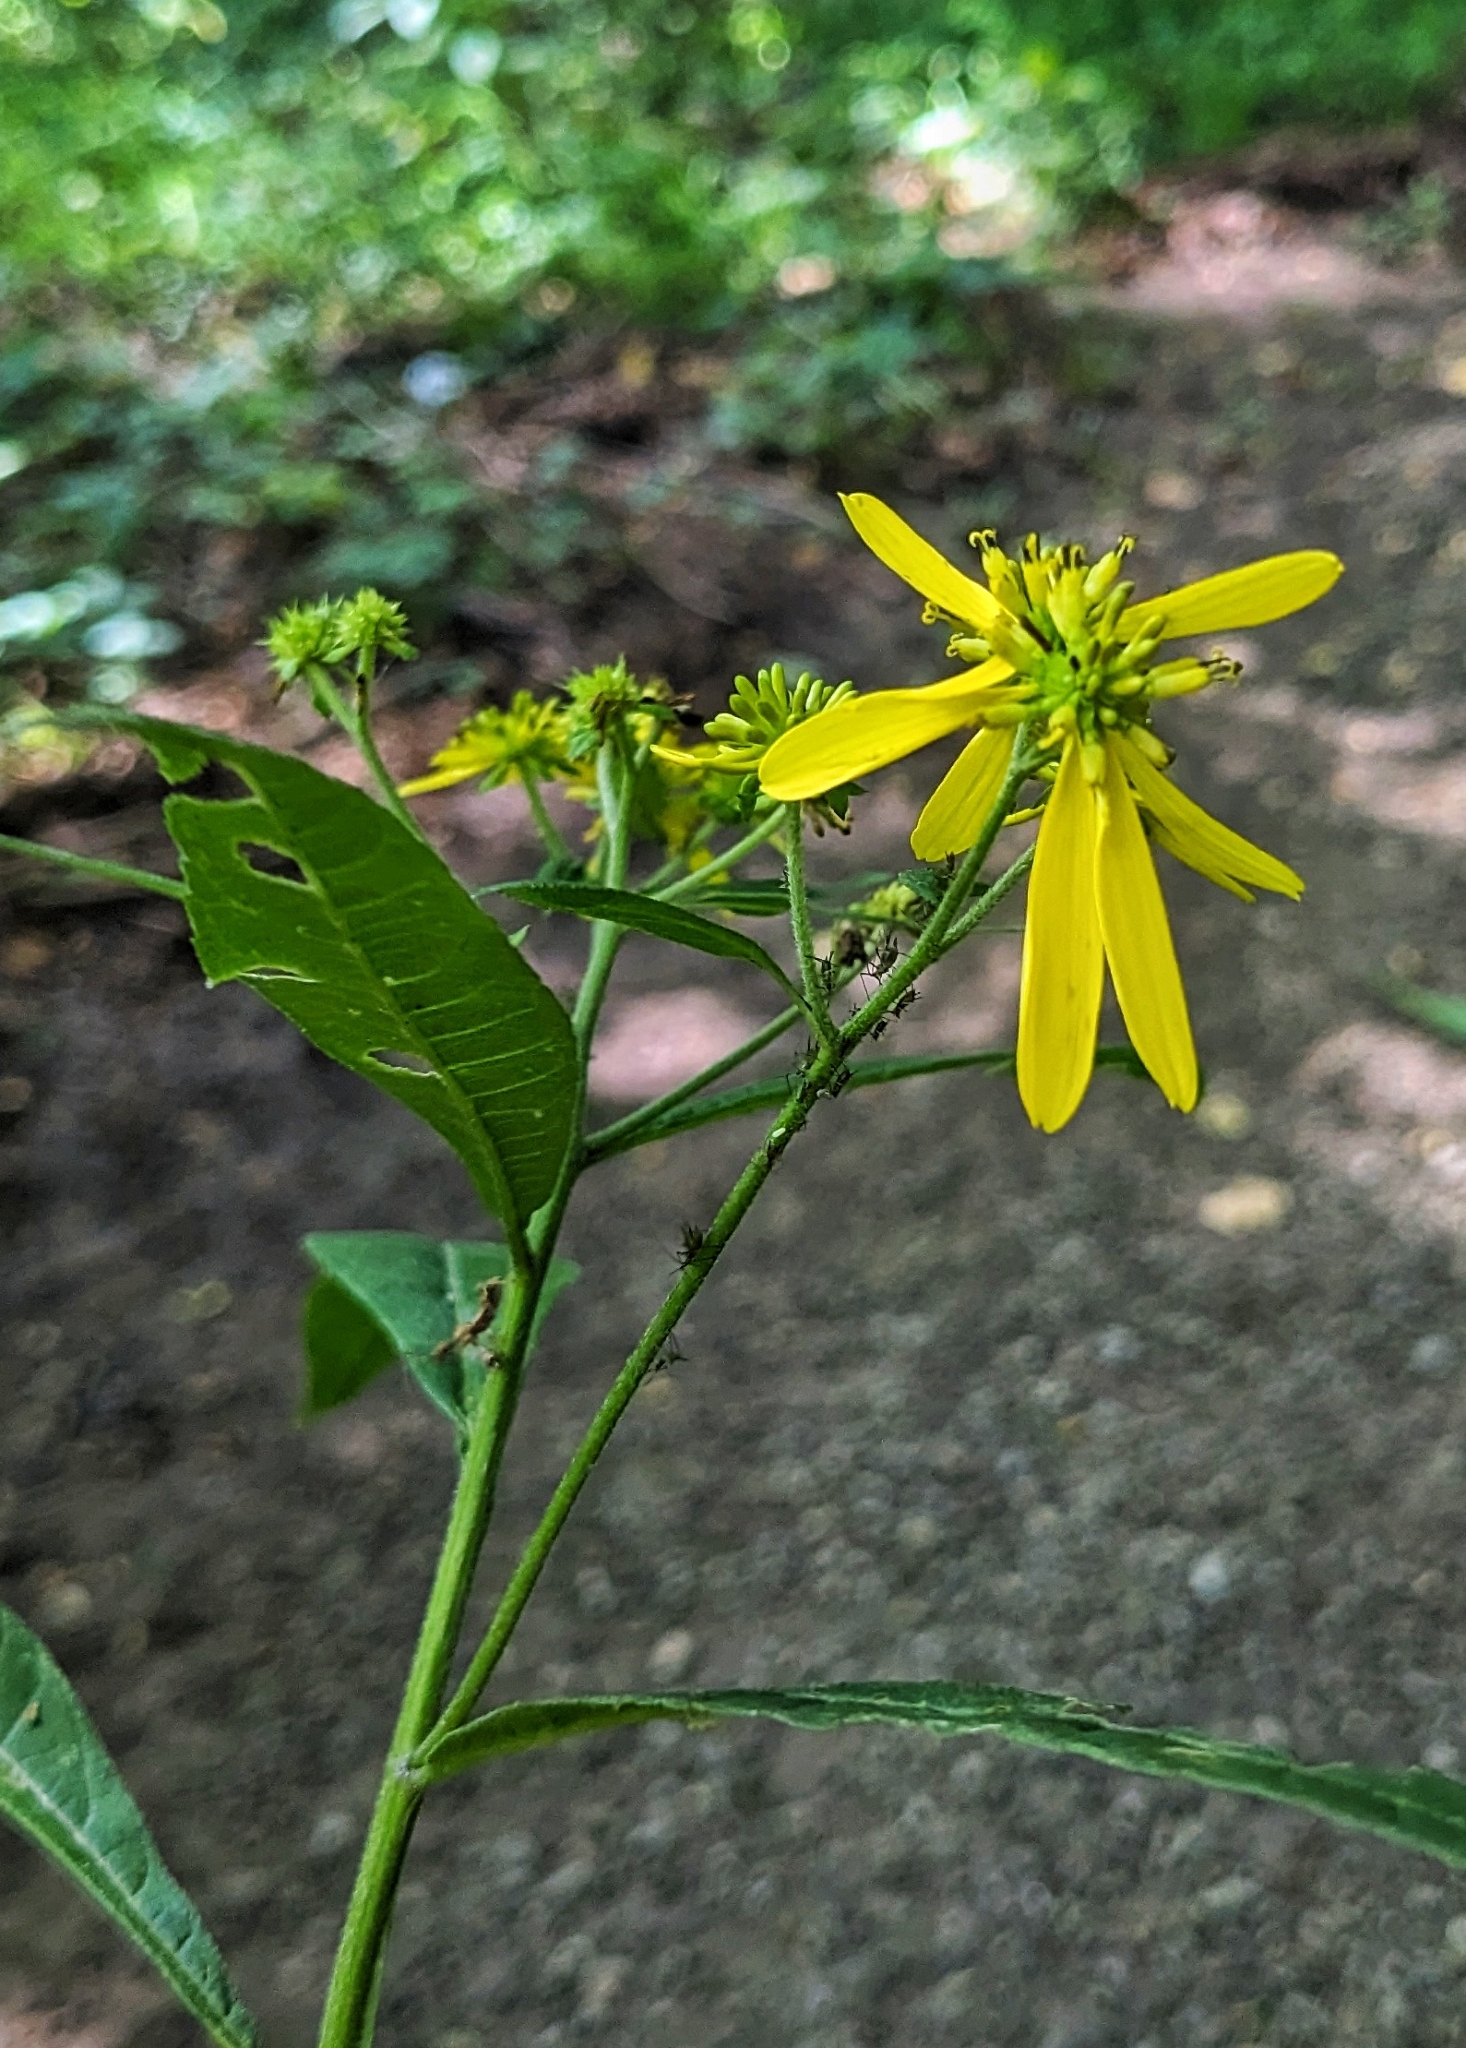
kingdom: Plantae
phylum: Tracheophyta
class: Magnoliopsida
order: Asterales
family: Asteraceae
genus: Verbesina
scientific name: Verbesina alternifolia
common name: Wingstem
